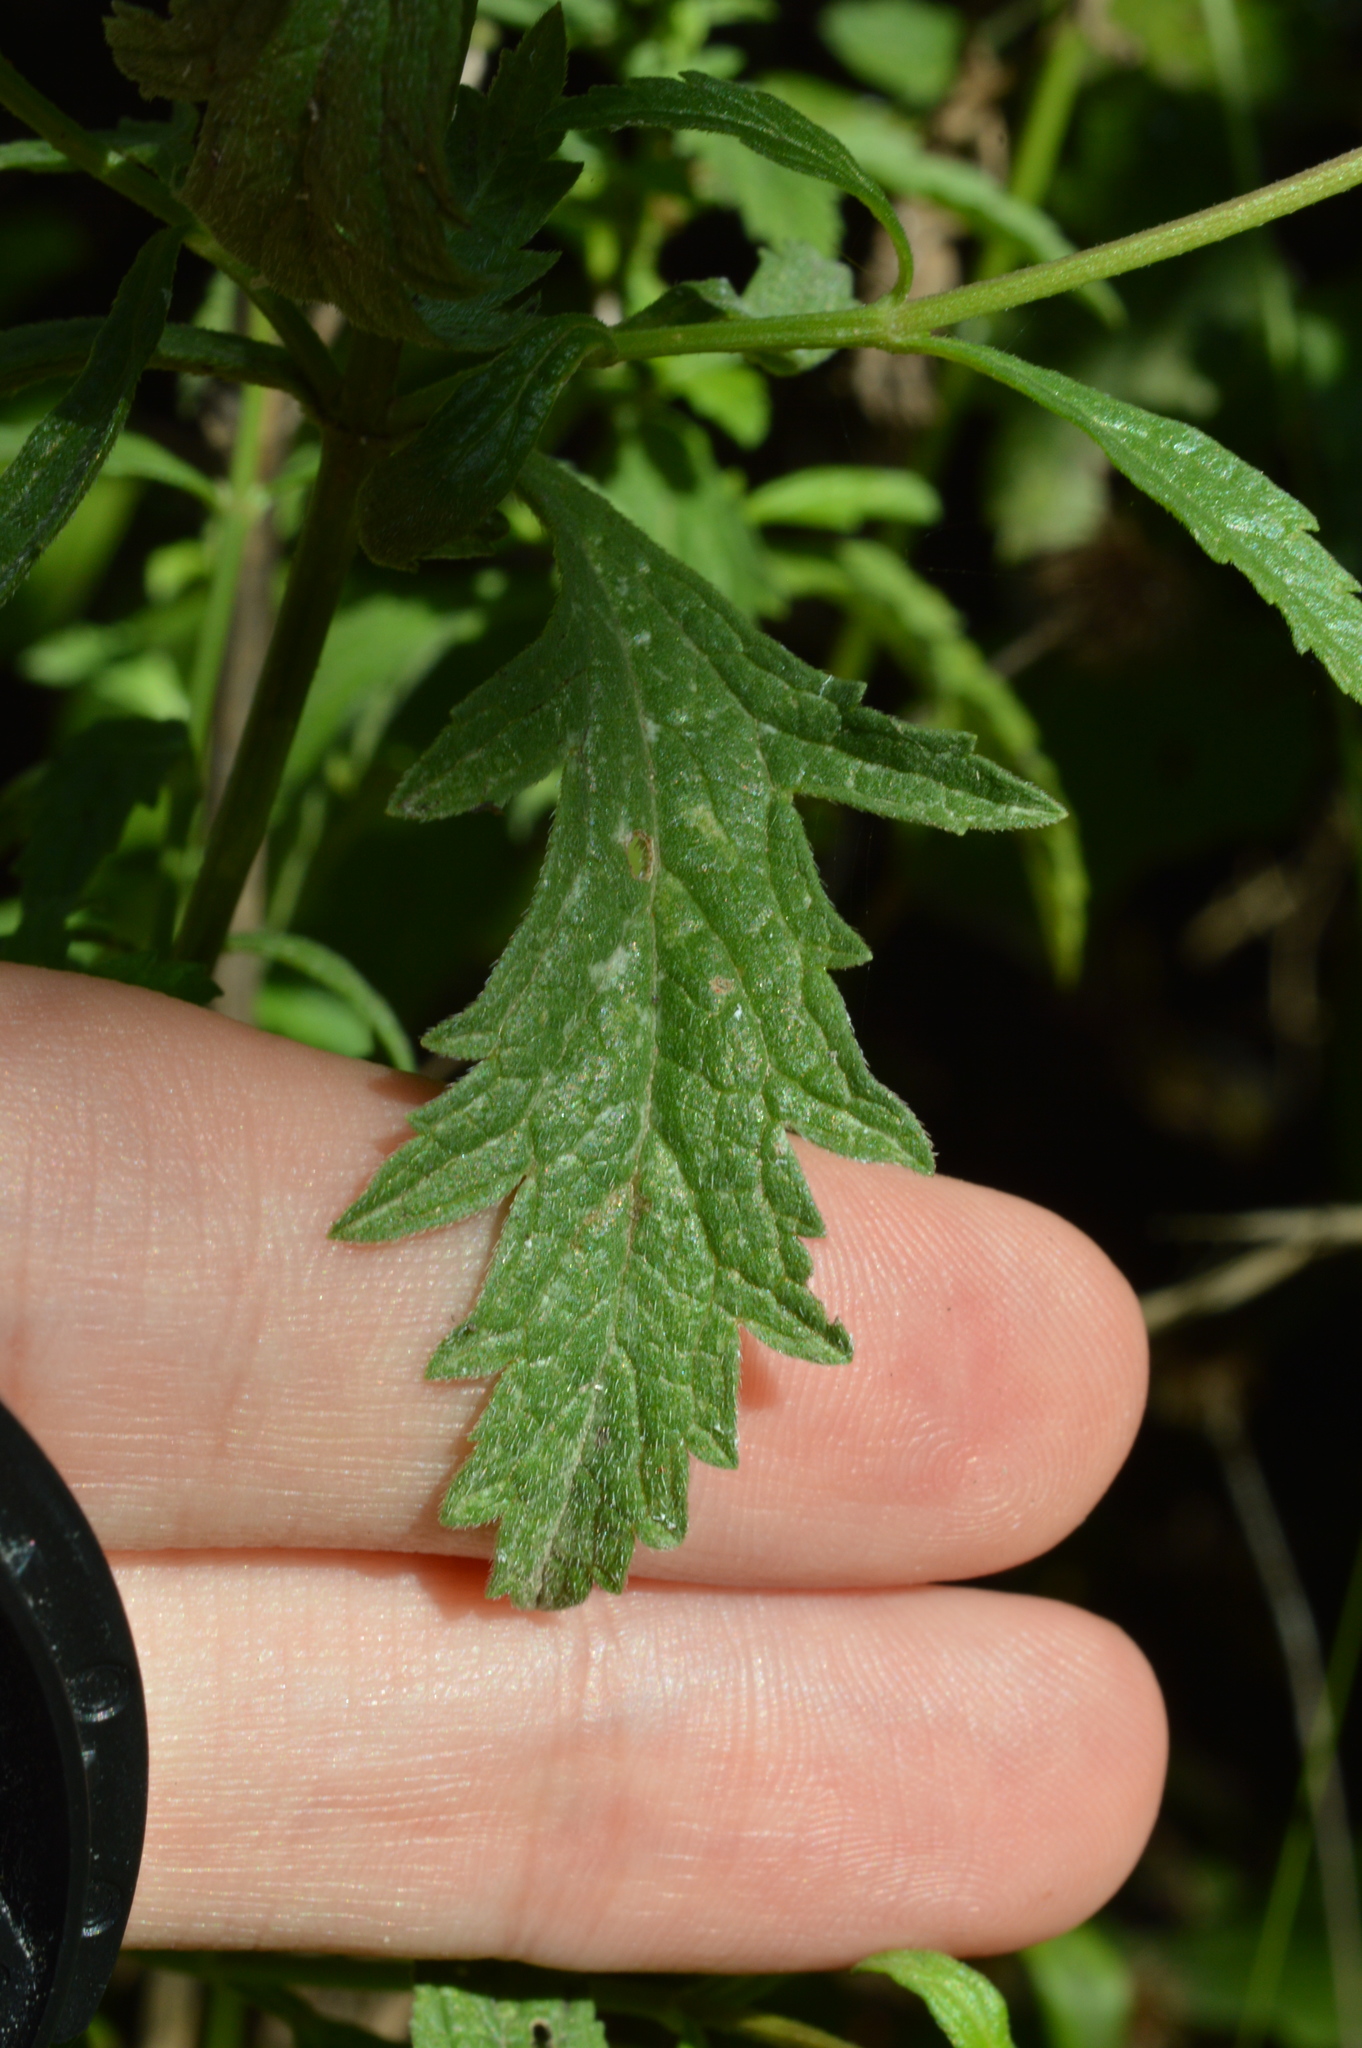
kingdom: Plantae
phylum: Tracheophyta
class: Magnoliopsida
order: Lamiales
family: Verbenaceae
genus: Verbena
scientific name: Verbena officinalis
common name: Vervain
